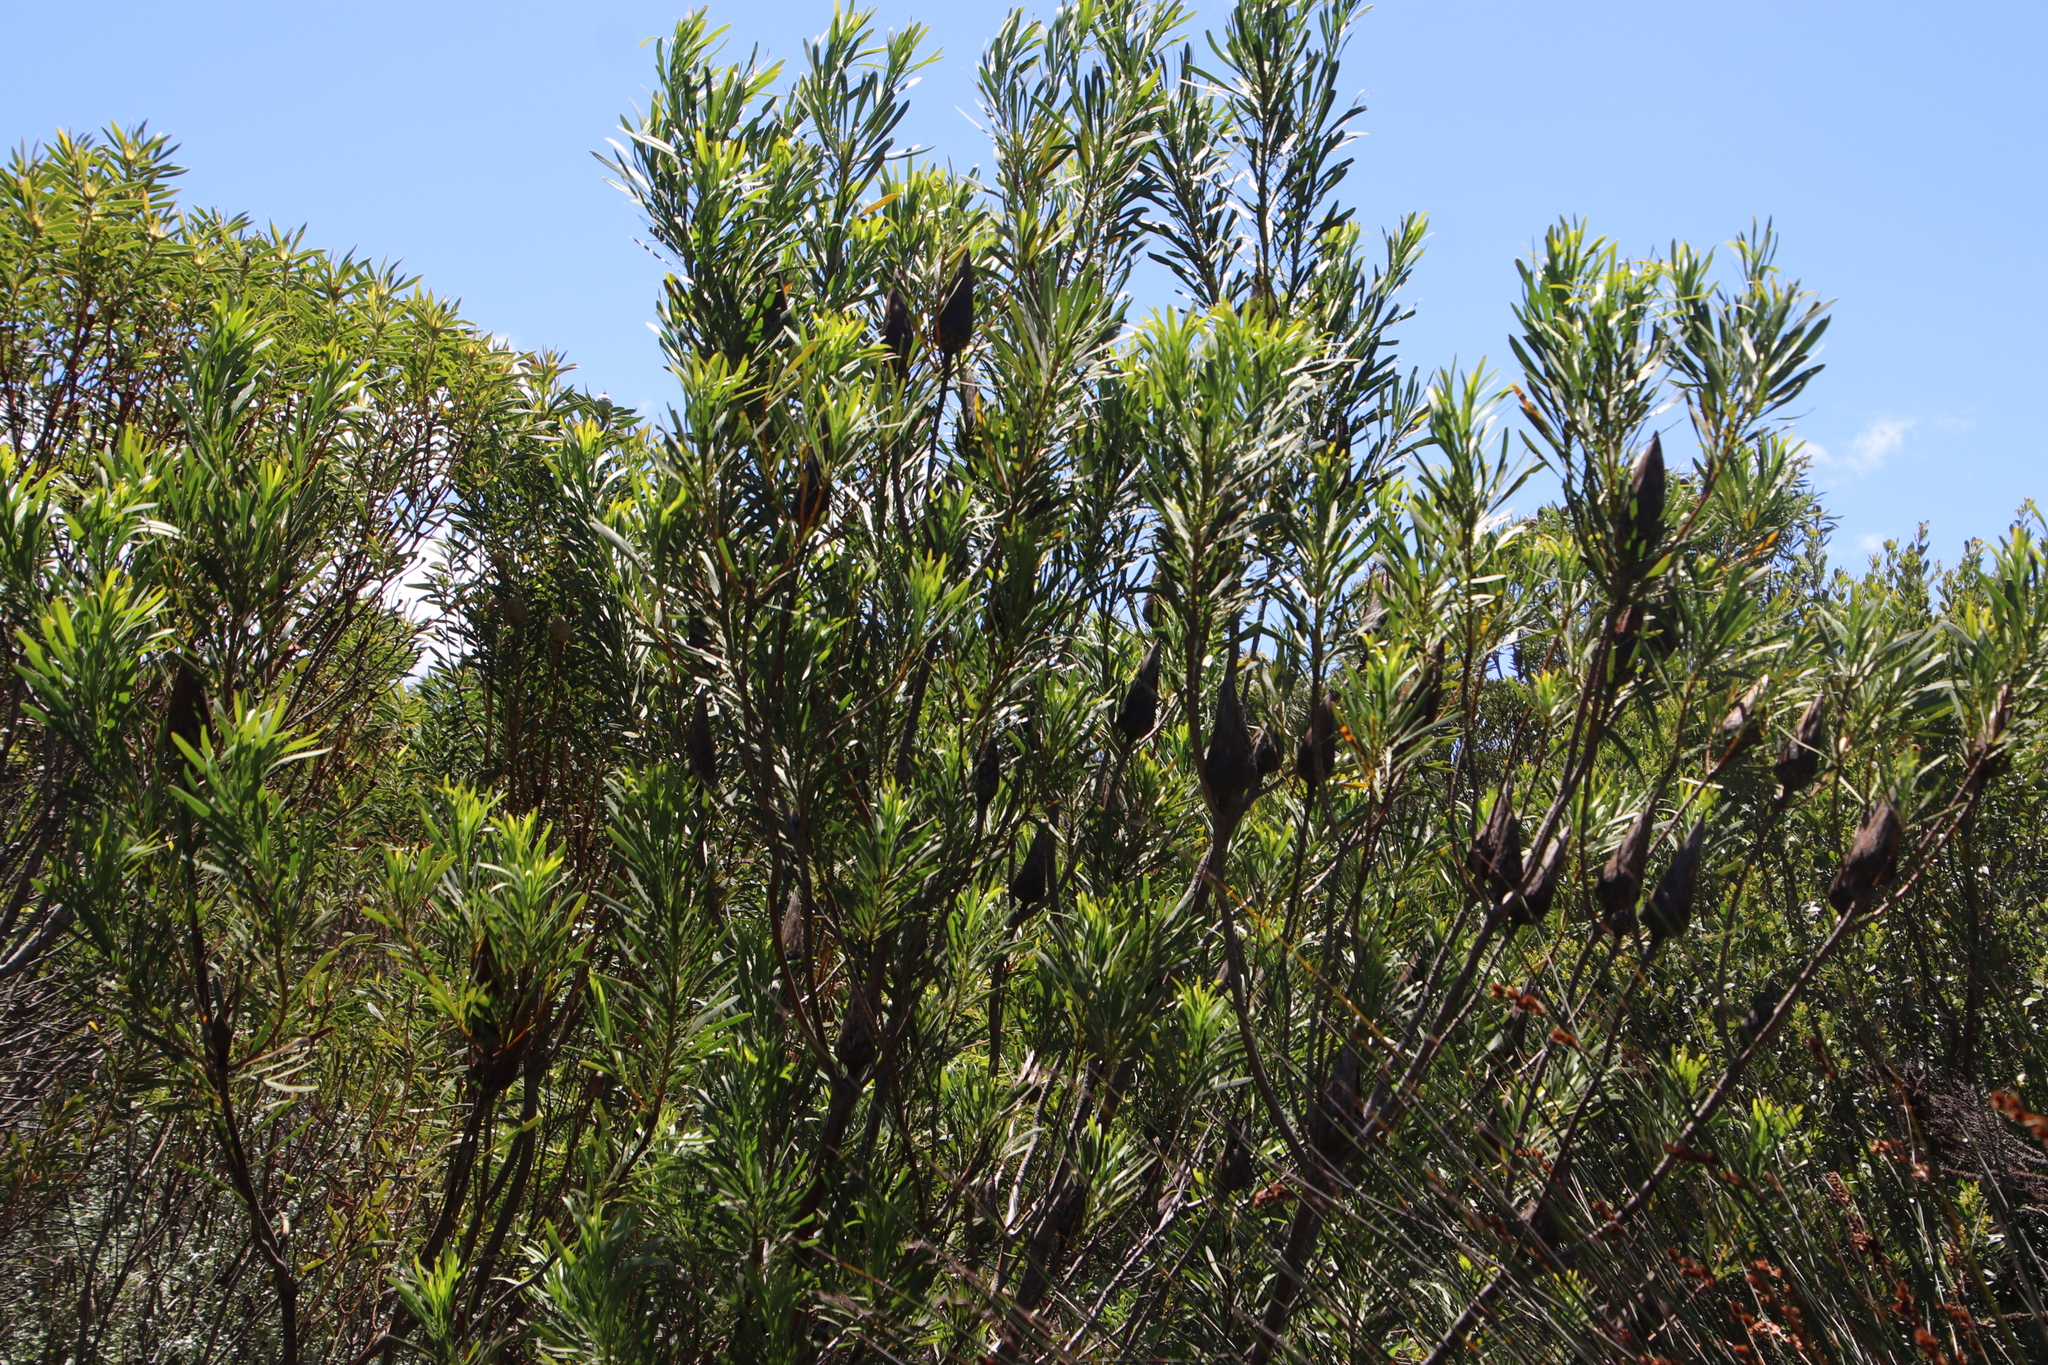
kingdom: Plantae
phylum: Tracheophyta
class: Magnoliopsida
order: Proteales
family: Proteaceae
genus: Protea
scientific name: Protea repens
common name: Sugarbush
